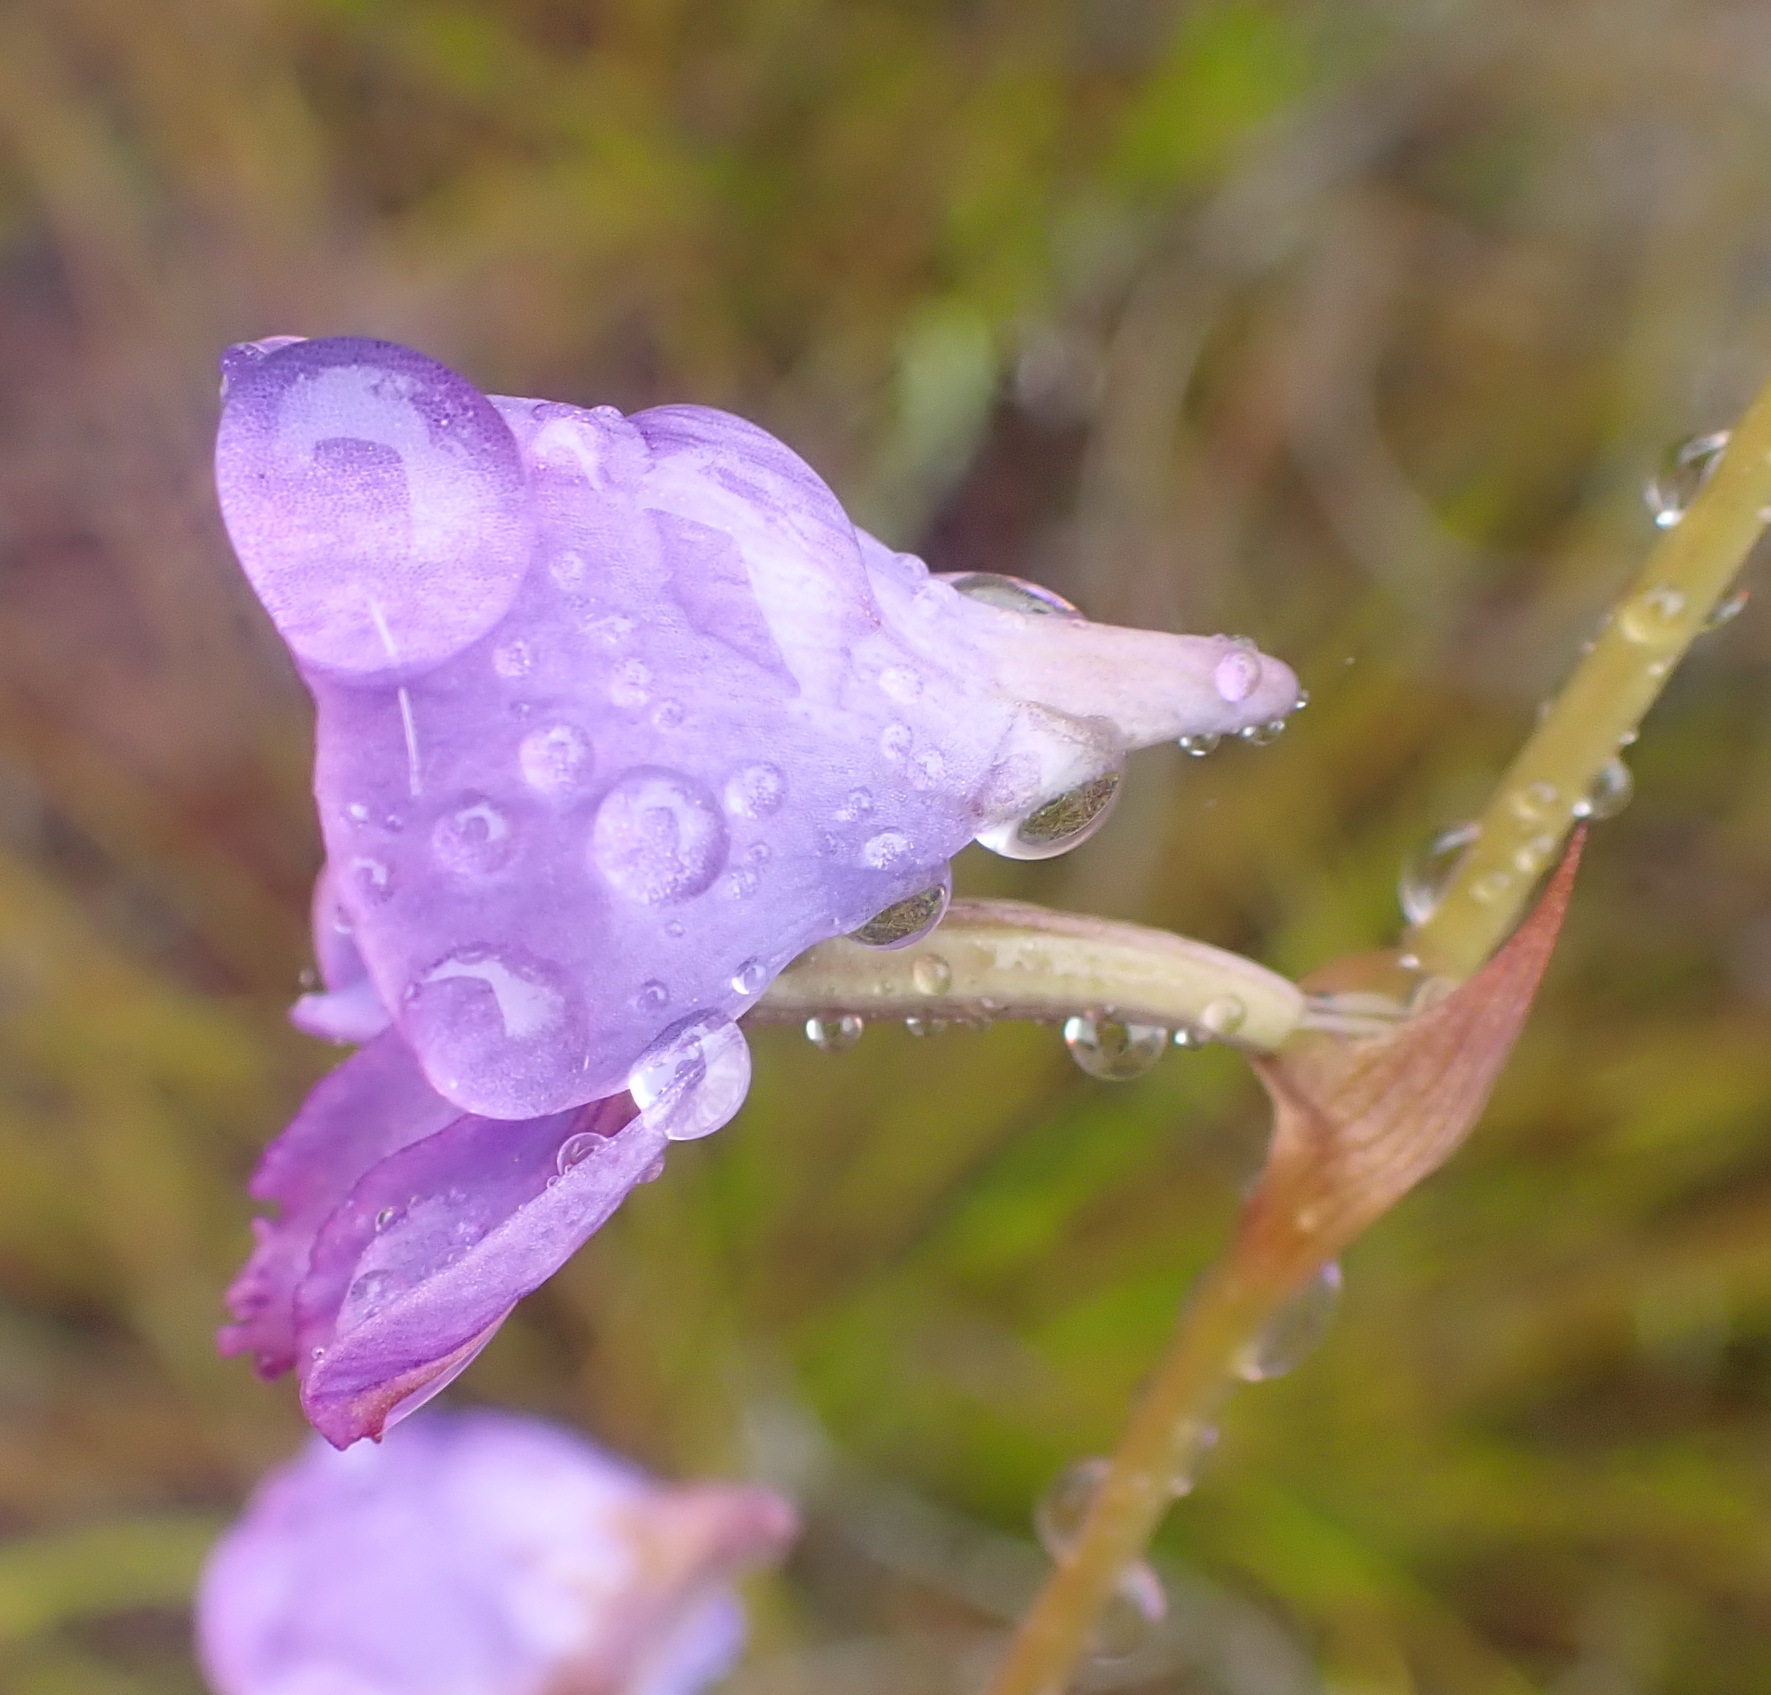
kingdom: Plantae
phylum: Tracheophyta
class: Liliopsida
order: Asparagales
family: Orchidaceae
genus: Disa
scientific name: Disa hians
